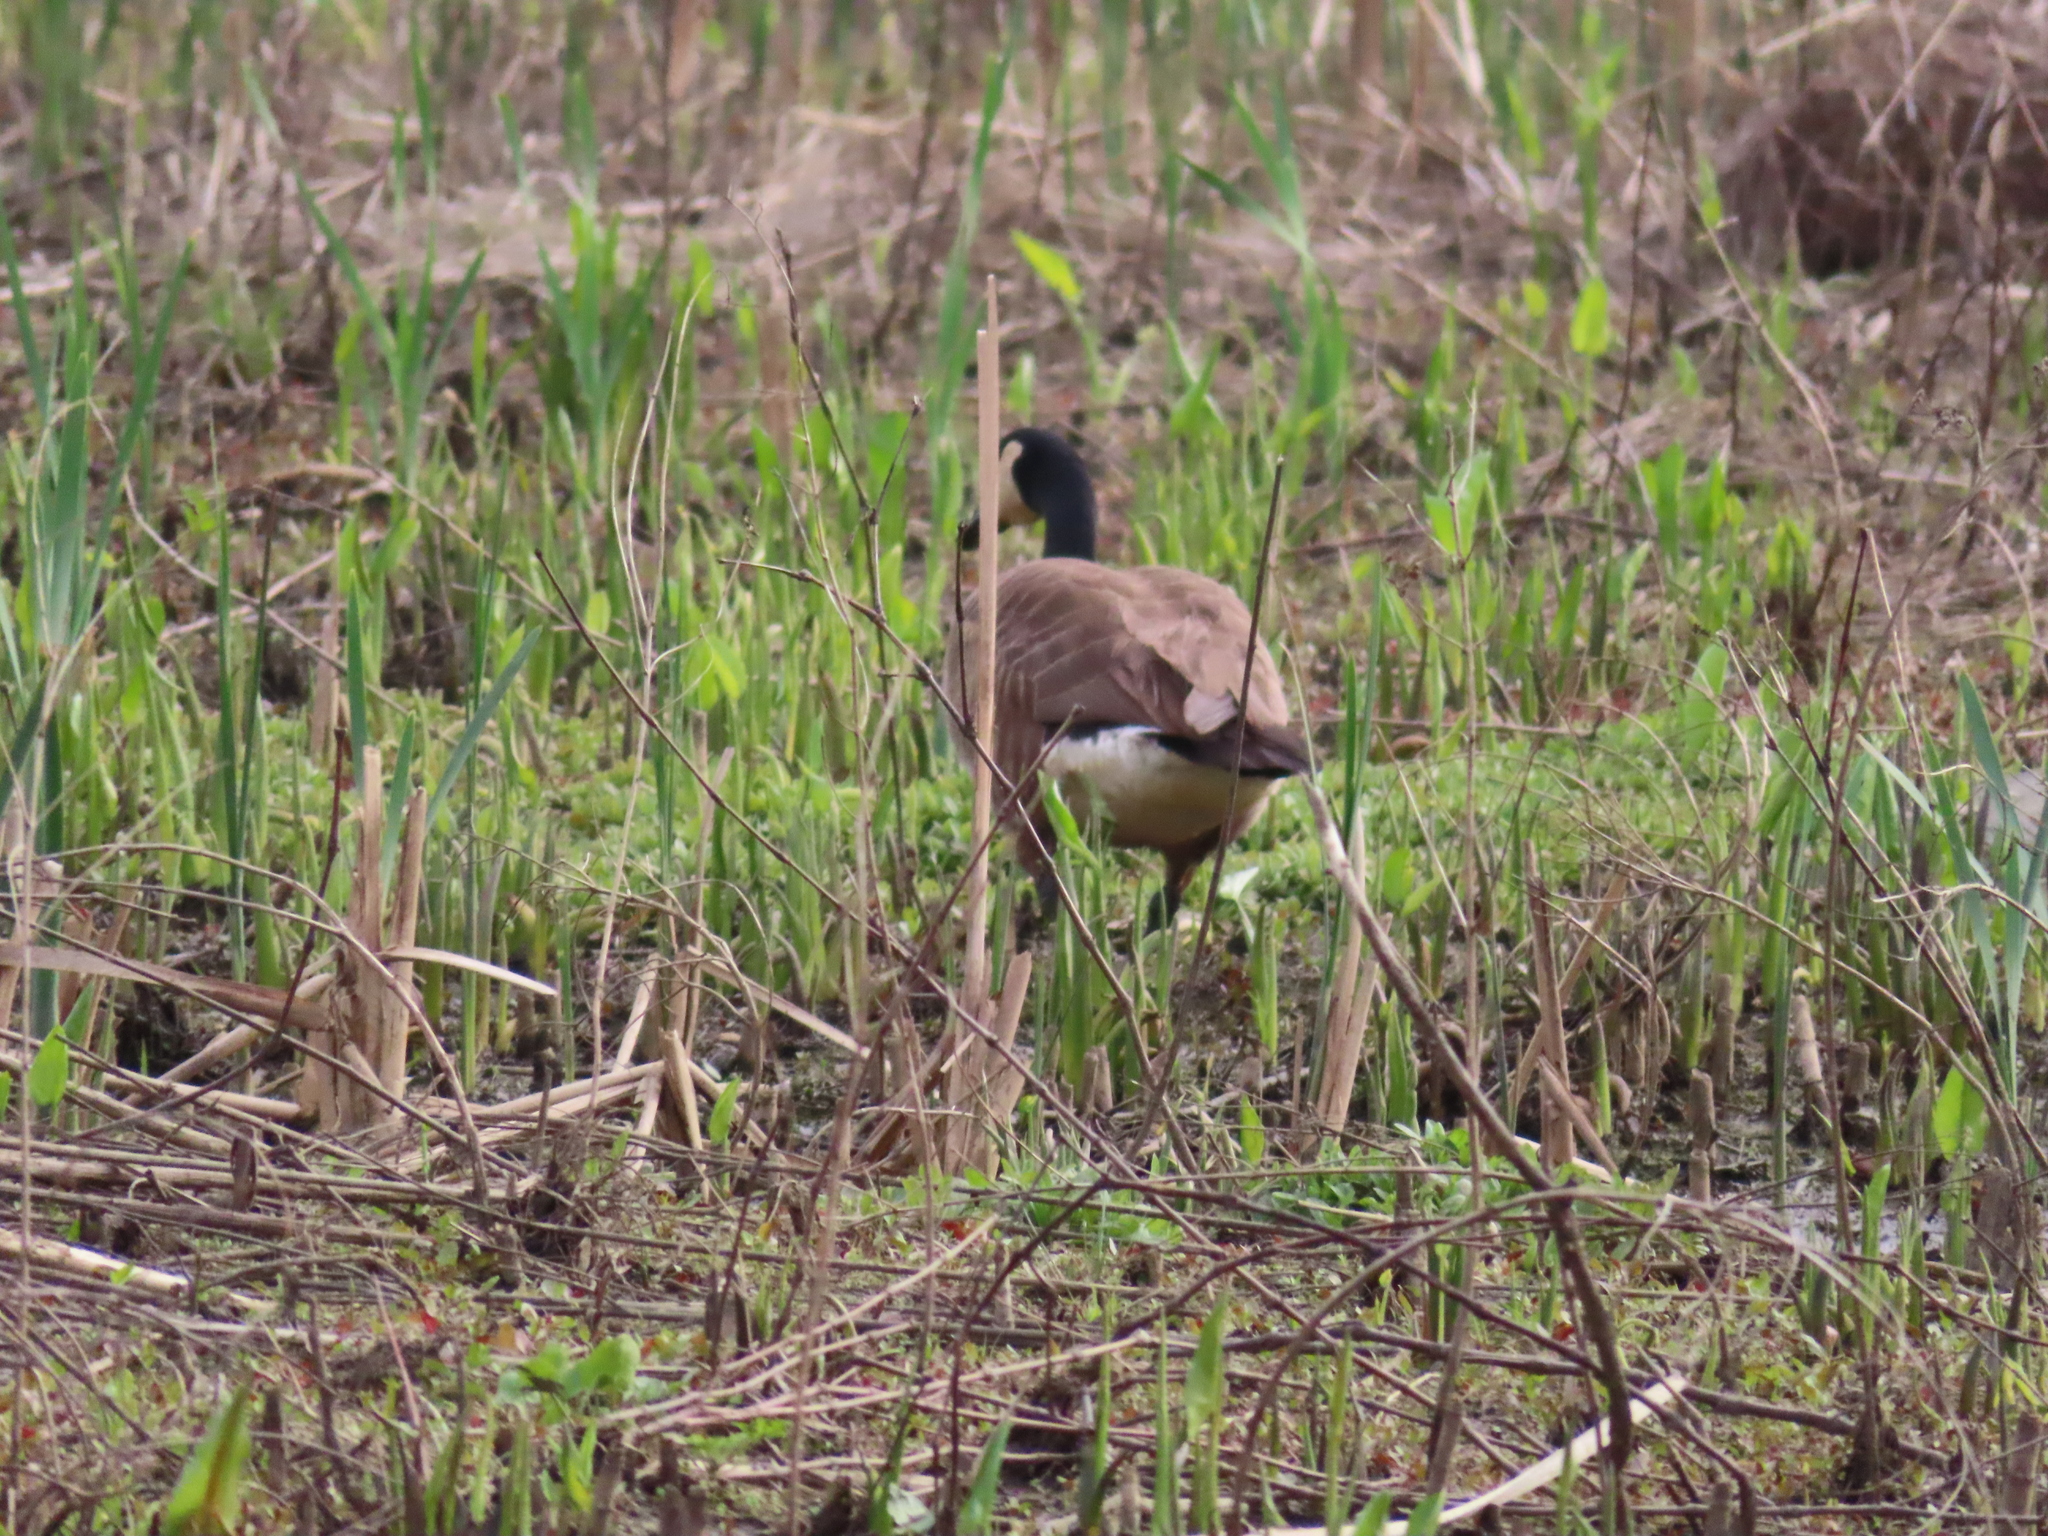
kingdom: Animalia
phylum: Chordata
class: Aves
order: Anseriformes
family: Anatidae
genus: Branta
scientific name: Branta canadensis
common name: Canada goose
